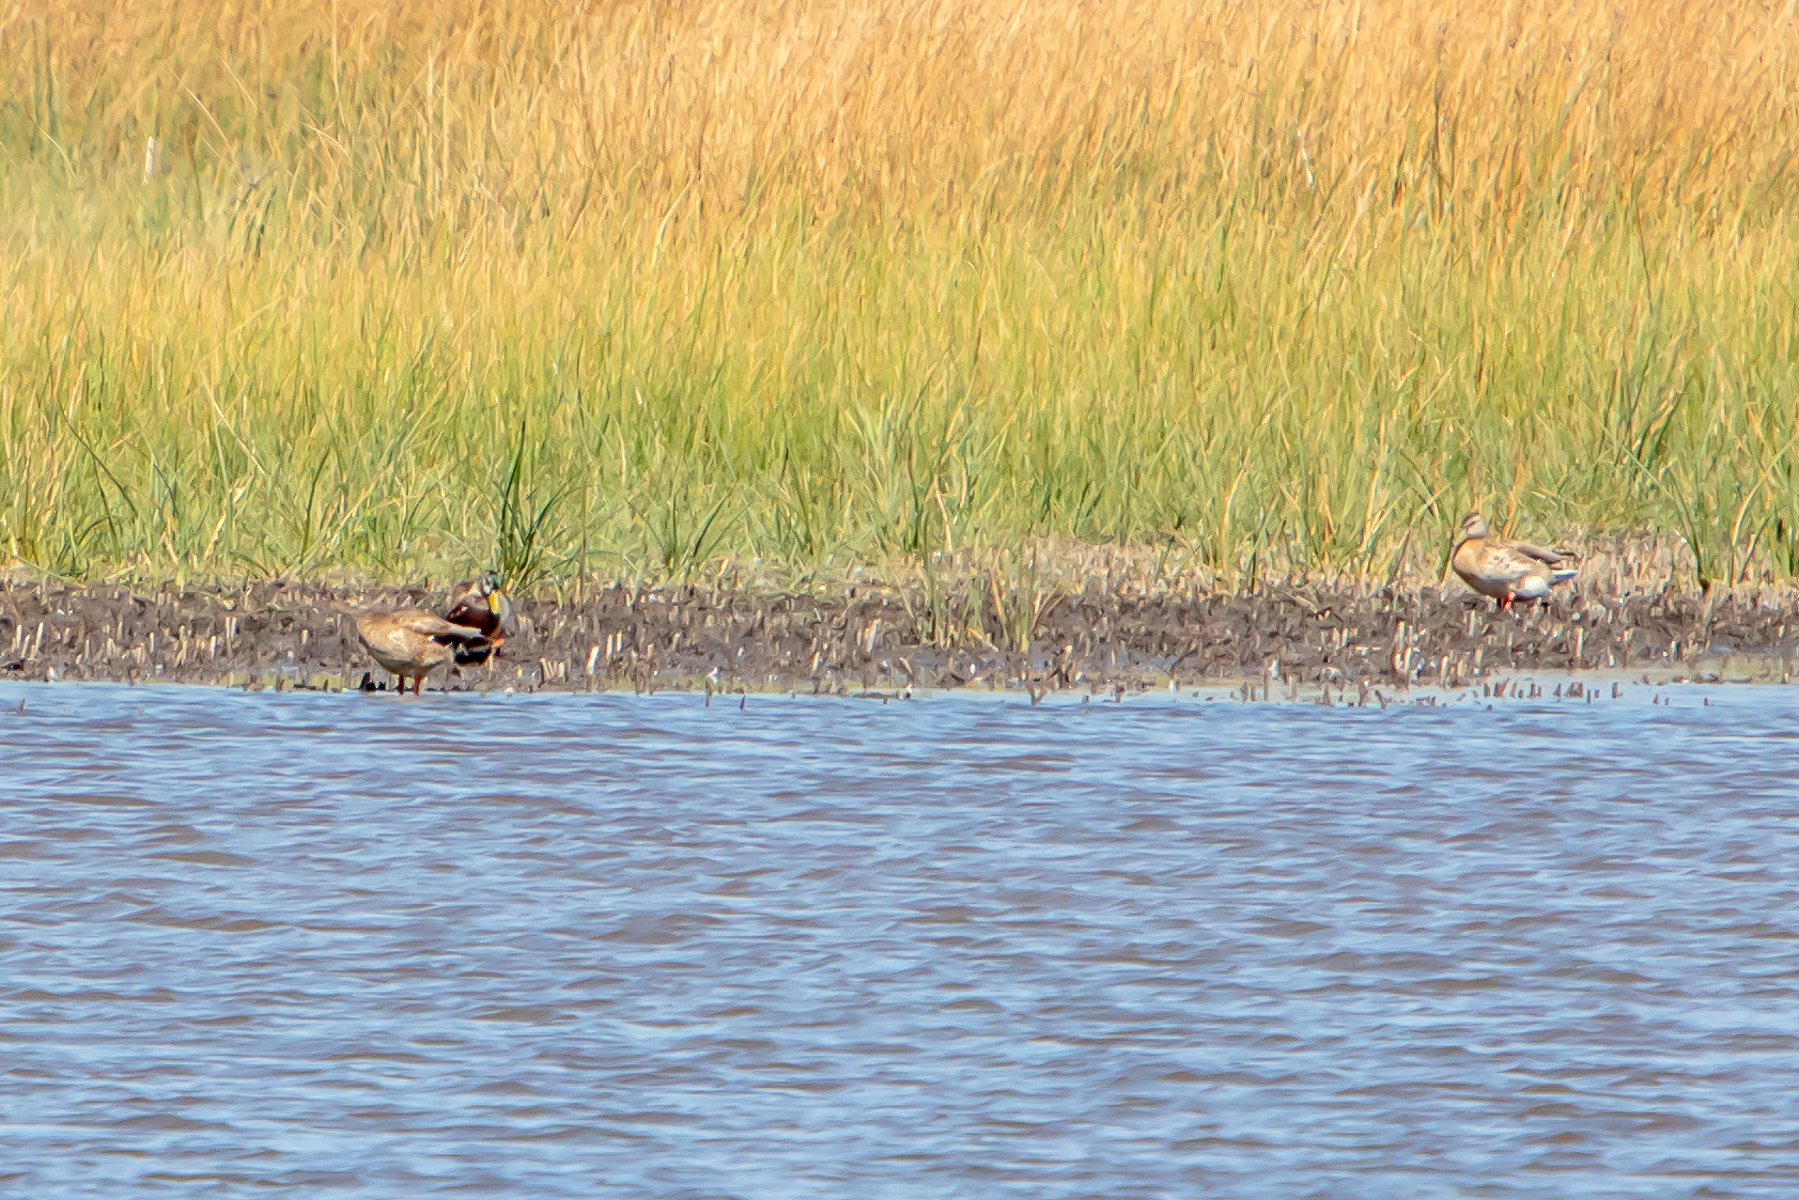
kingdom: Animalia
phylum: Chordata
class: Aves
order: Anseriformes
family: Anatidae
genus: Anas
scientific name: Anas platyrhynchos
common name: Mallard
